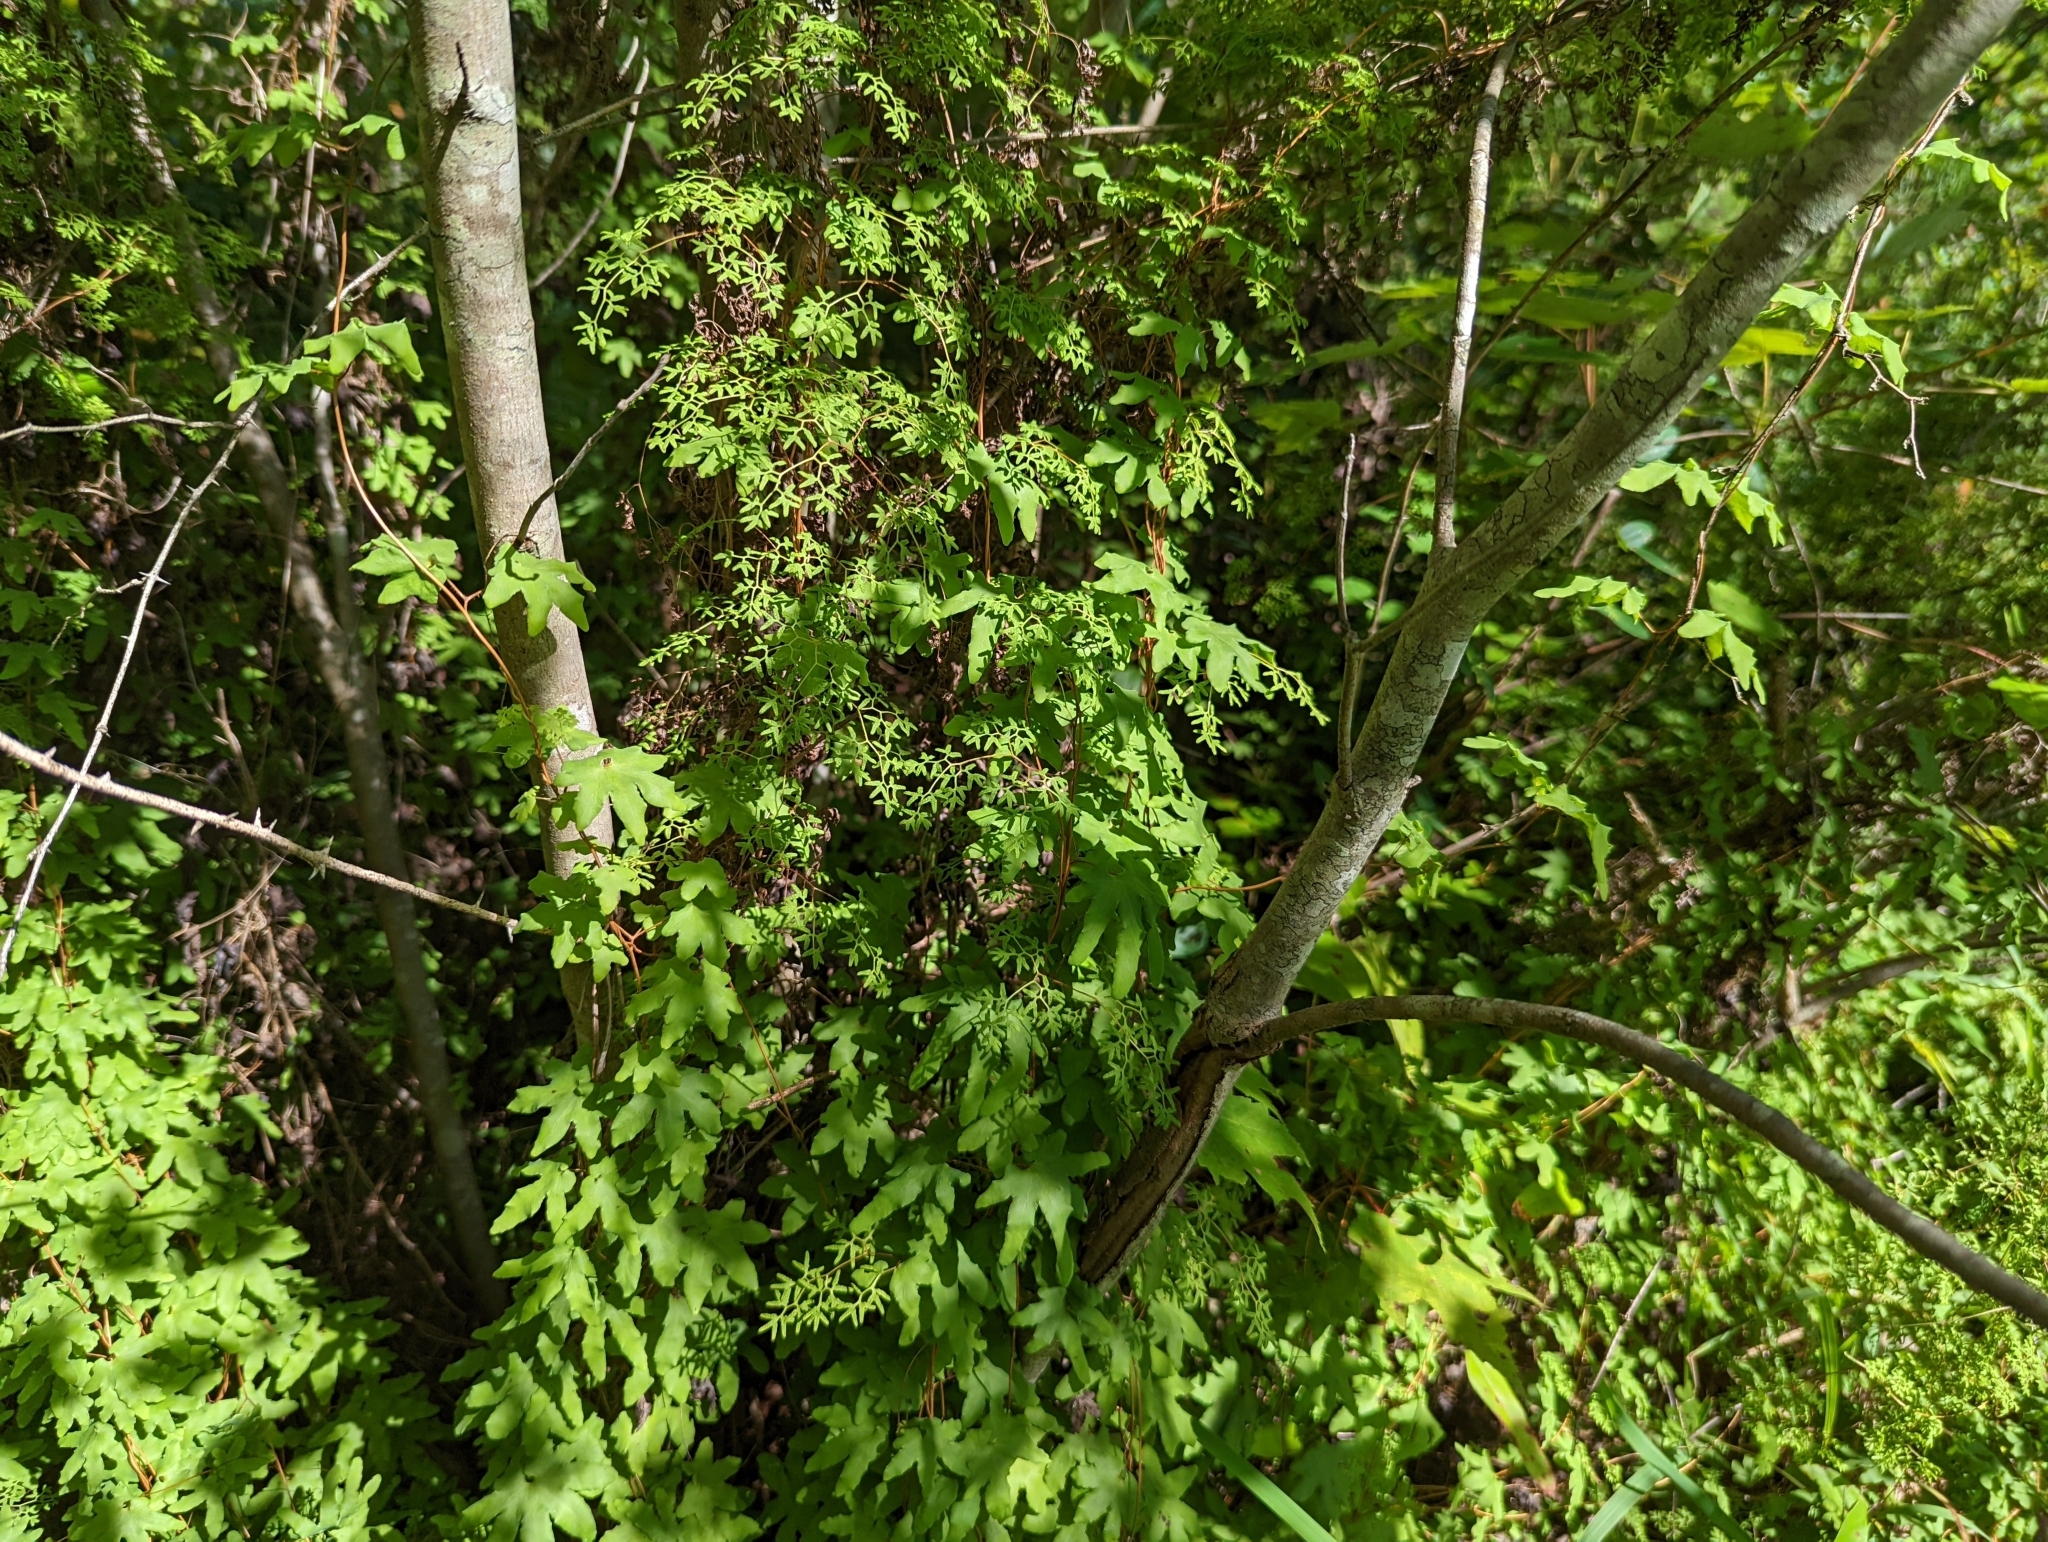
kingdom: Plantae
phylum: Tracheophyta
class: Polypodiopsida
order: Schizaeales
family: Lygodiaceae
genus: Lygodium
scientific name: Lygodium palmatum
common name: American climbing fern
